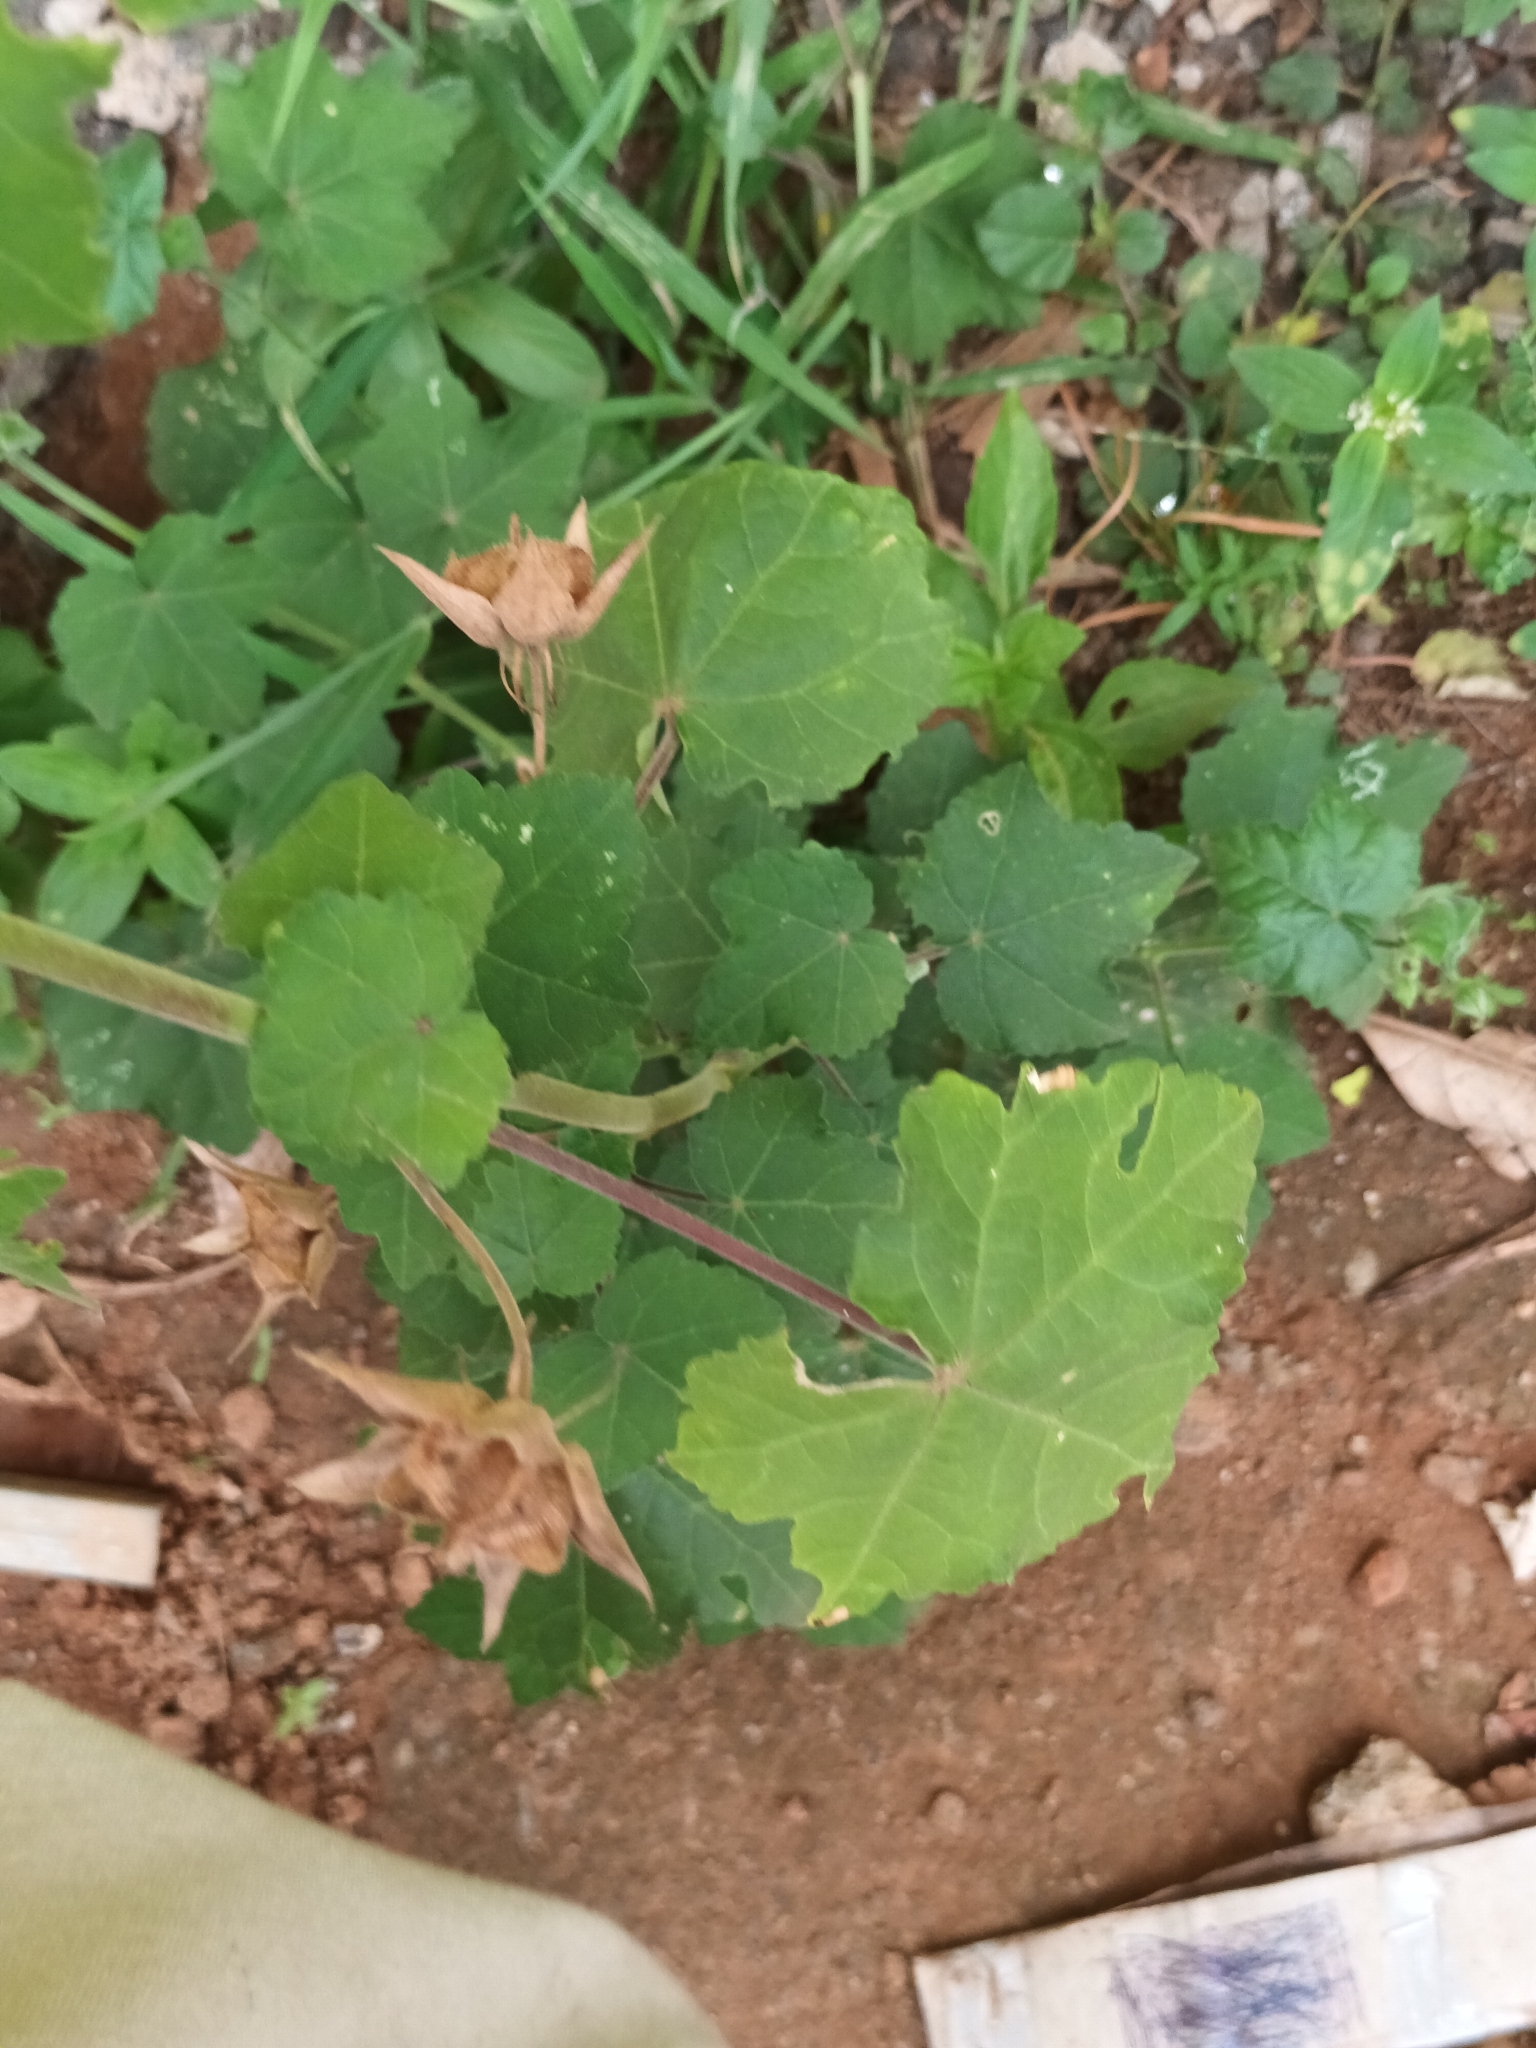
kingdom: Plantae
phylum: Tracheophyta
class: Magnoliopsida
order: Malvales
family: Malvaceae
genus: Hibiscus
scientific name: Hibiscus vitifolius
